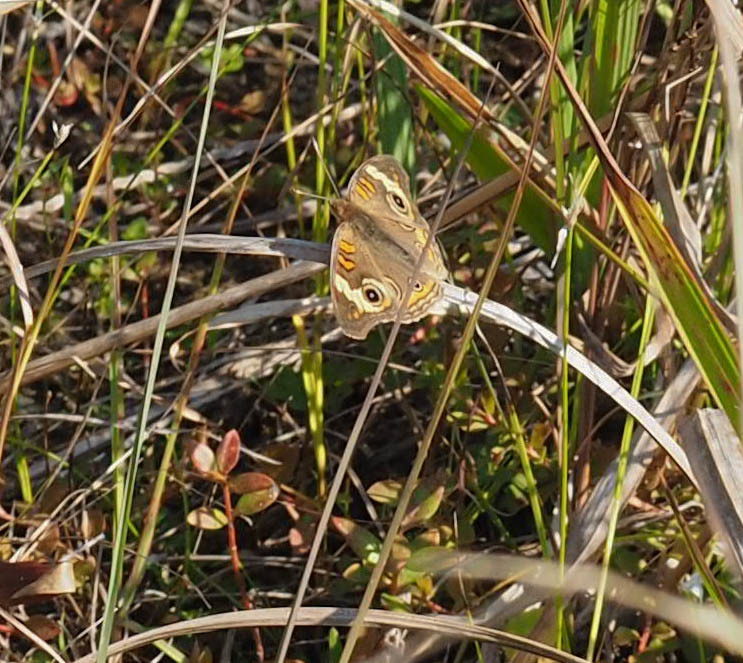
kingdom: Animalia
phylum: Arthropoda
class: Insecta
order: Lepidoptera
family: Nymphalidae
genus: Junonia
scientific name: Junonia coenia
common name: Common buckeye
